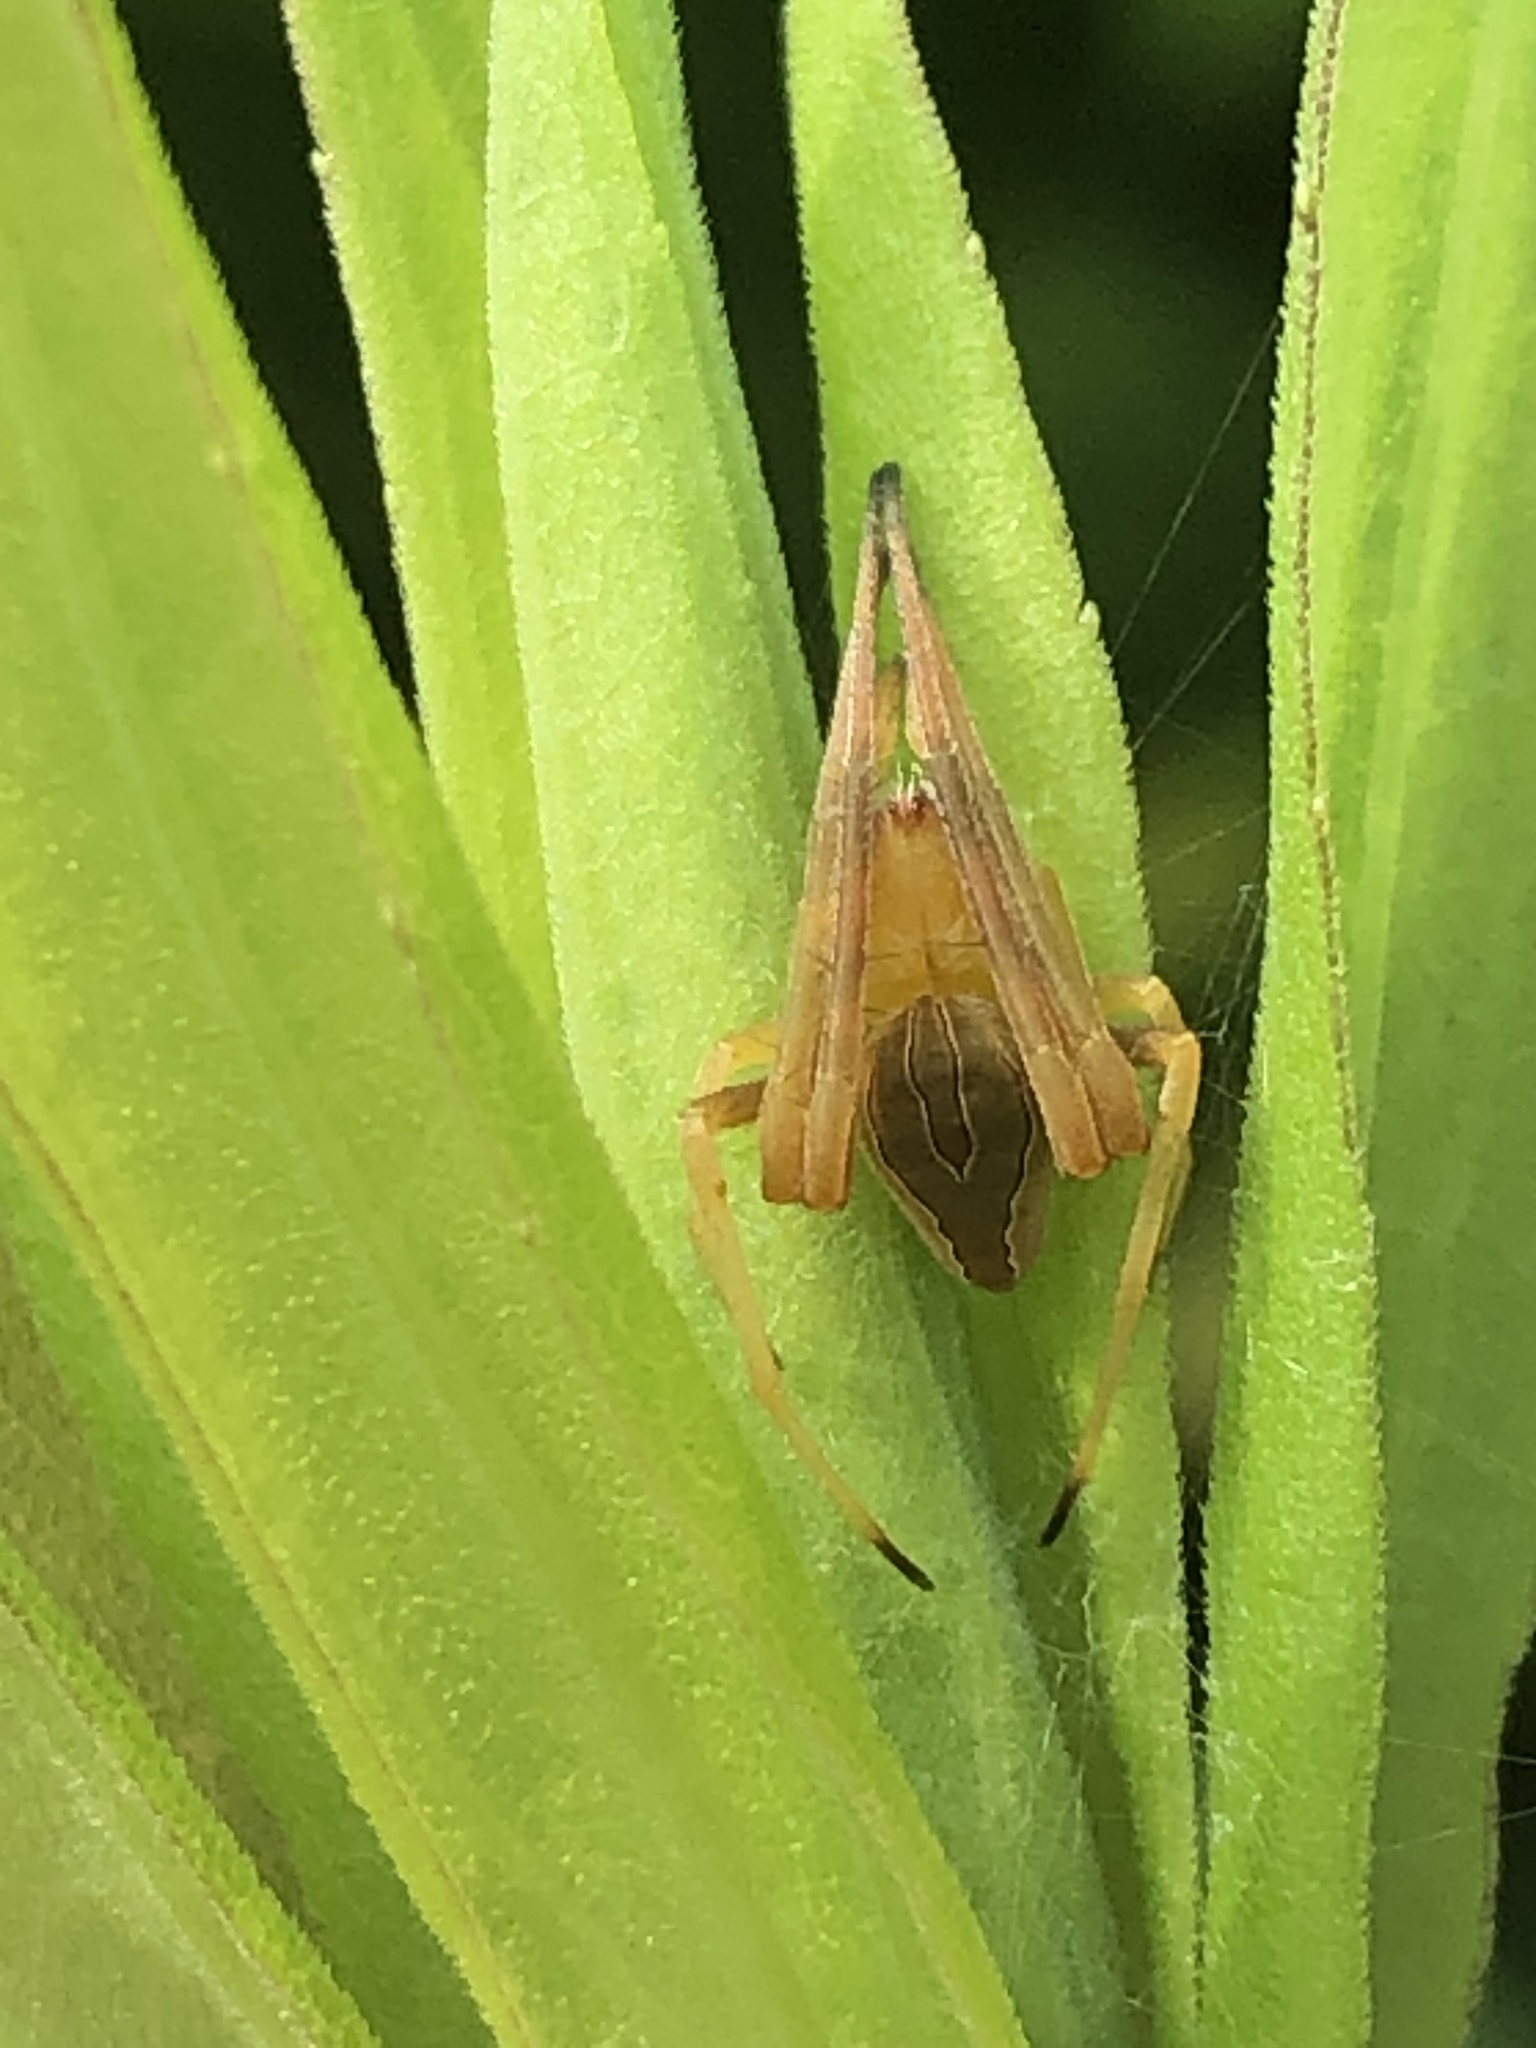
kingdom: Animalia
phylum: Arthropoda
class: Arachnida
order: Araneae
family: Araneidae
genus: Acacesia
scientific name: Acacesia hamata
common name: Orb weavers
